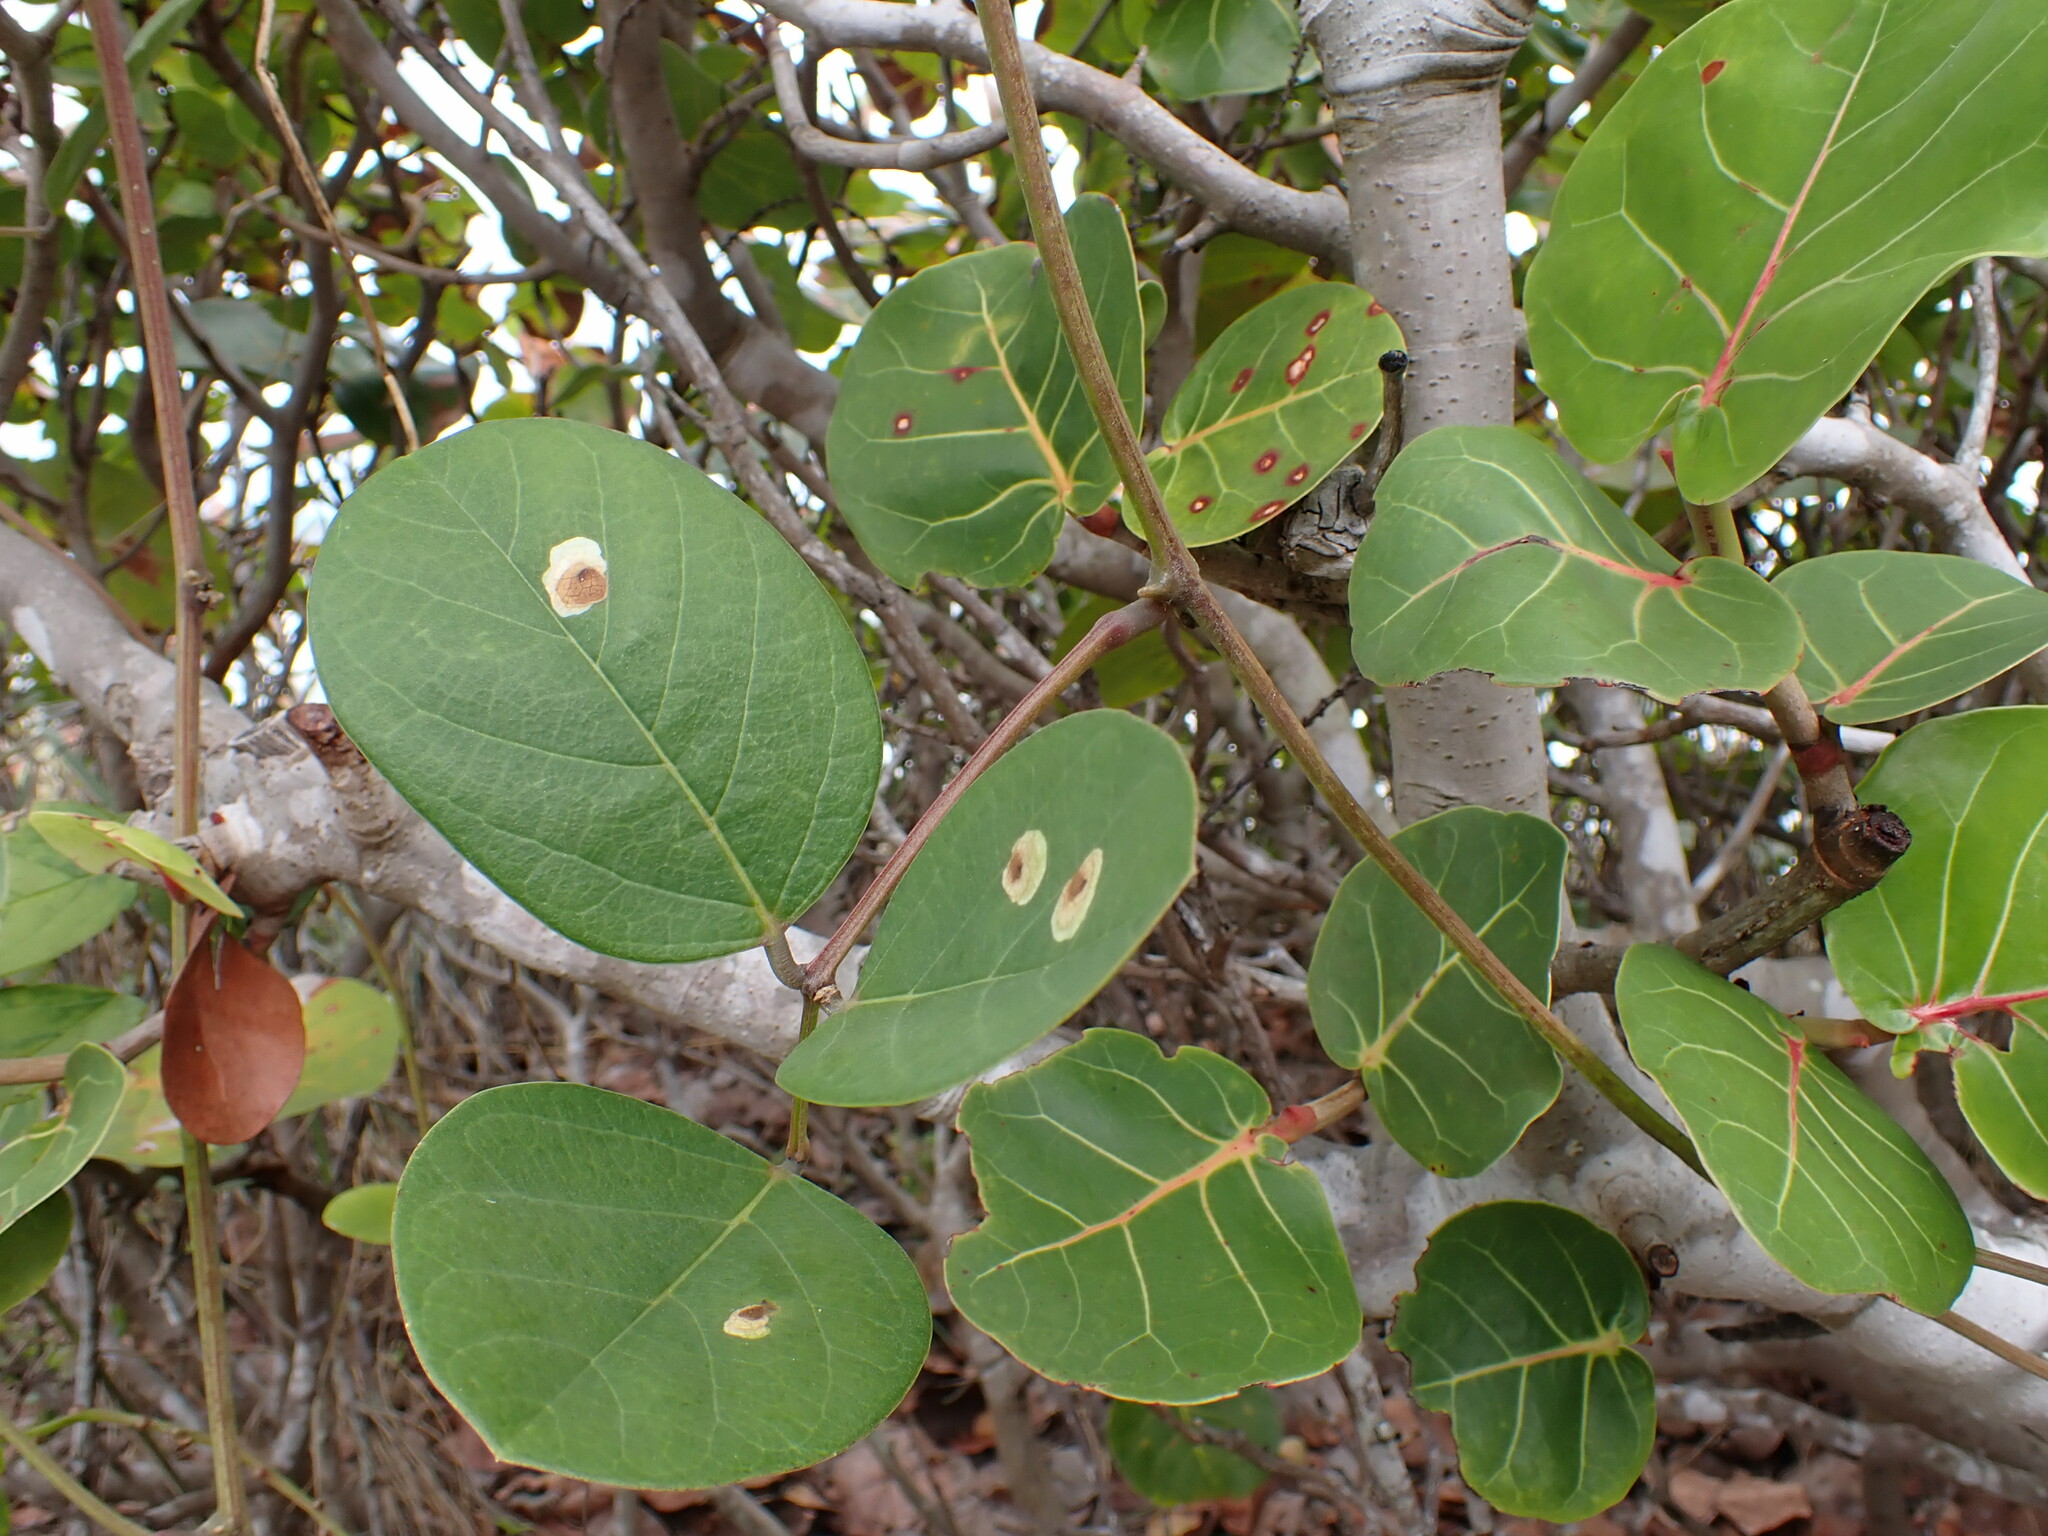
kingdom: Plantae
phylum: Tracheophyta
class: Magnoliopsida
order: Fabales
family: Fabaceae
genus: Canavalia
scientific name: Canavalia rosea
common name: Beach-bean
